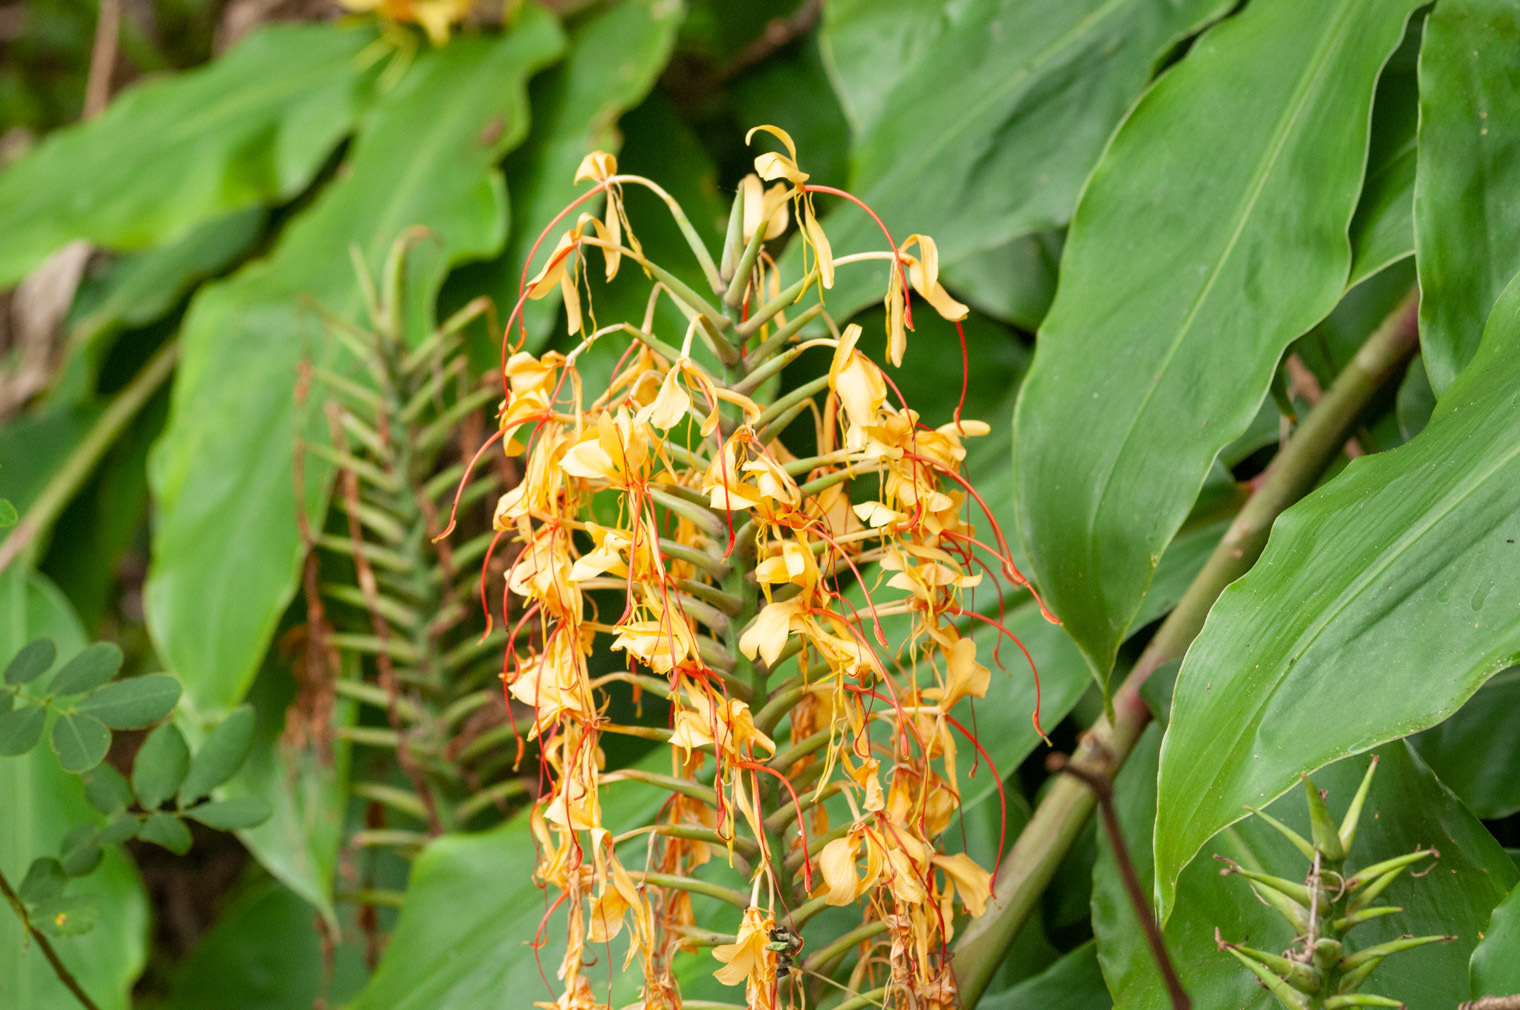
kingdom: Plantae
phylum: Tracheophyta
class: Liliopsida
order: Zingiberales
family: Zingiberaceae
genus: Hedychium
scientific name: Hedychium gardnerianum
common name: Himalayan ginger
